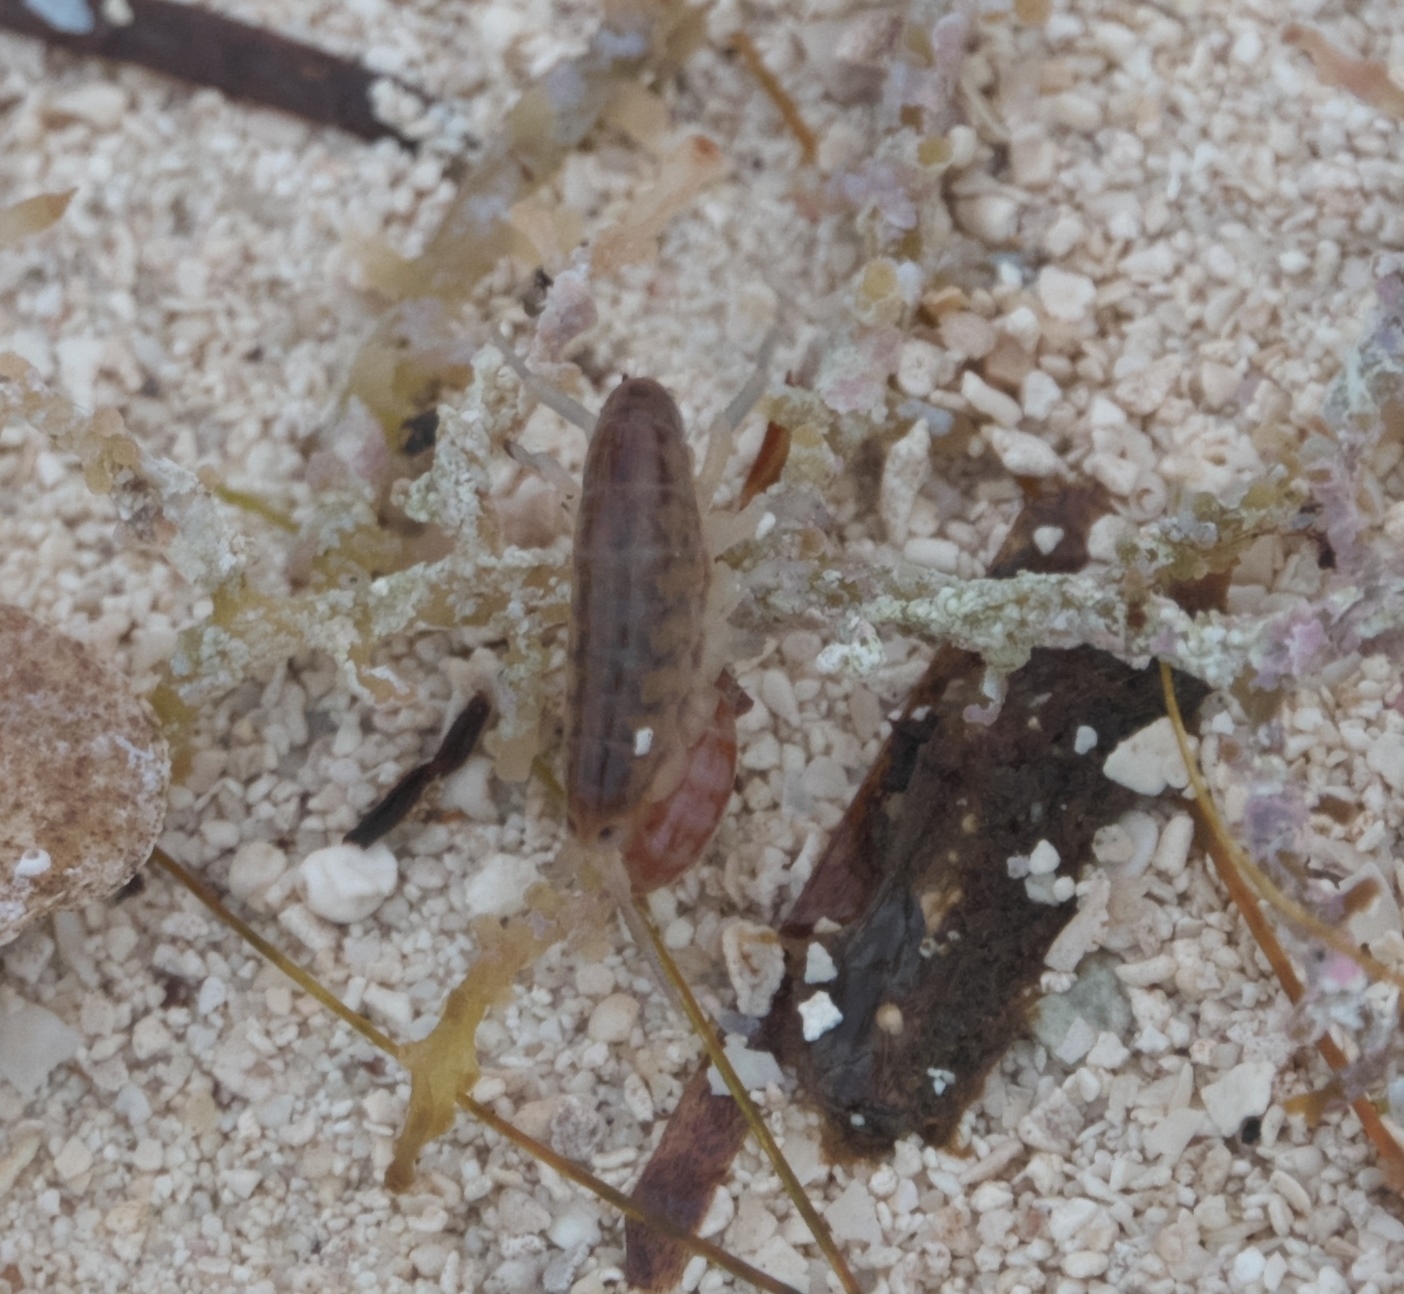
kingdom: Animalia
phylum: Arthropoda
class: Malacostraca
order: Amphipoda
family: Talitridae
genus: Mexorchestia
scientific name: Mexorchestia carpenteri
